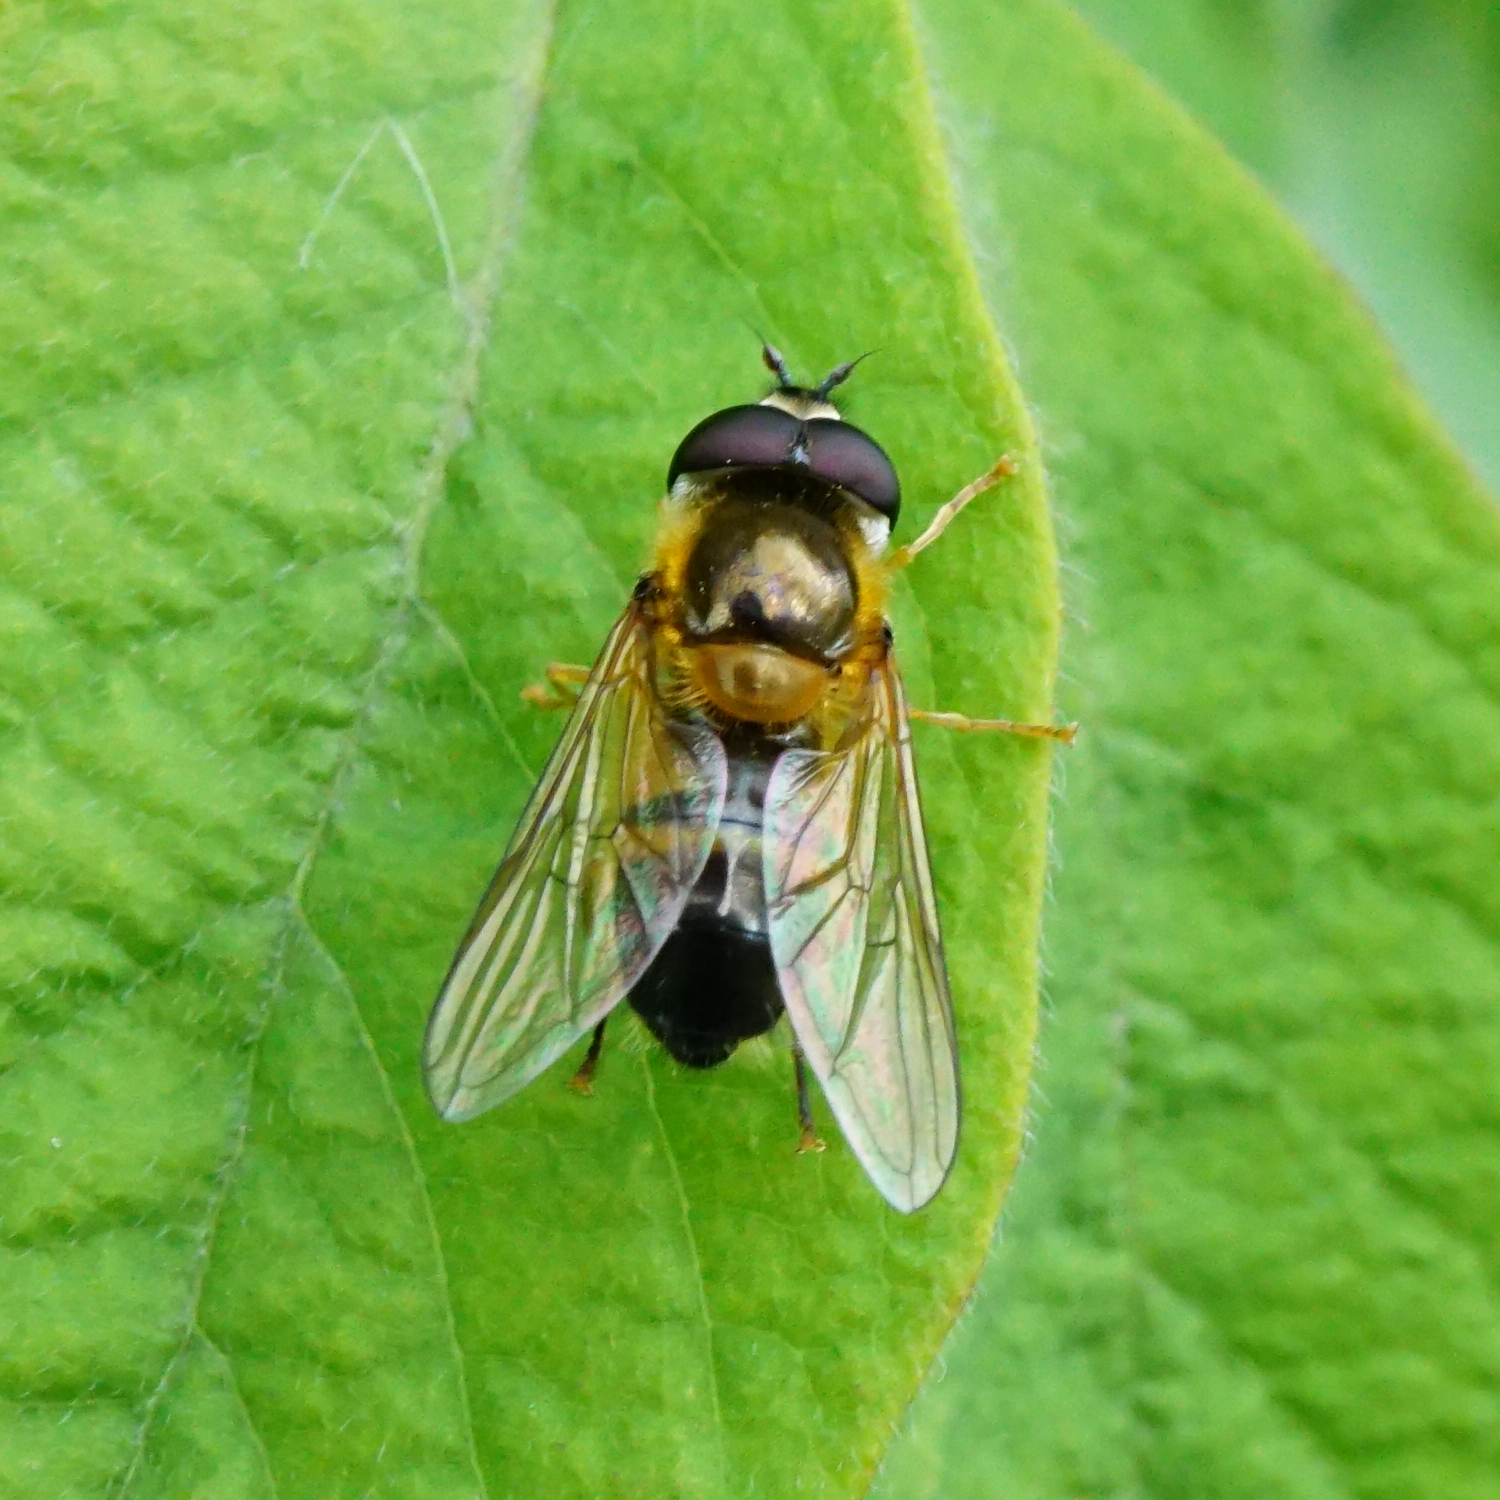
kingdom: Animalia
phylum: Arthropoda
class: Insecta
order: Diptera
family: Syrphidae
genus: Epistrophe
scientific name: Epistrophe eligans
